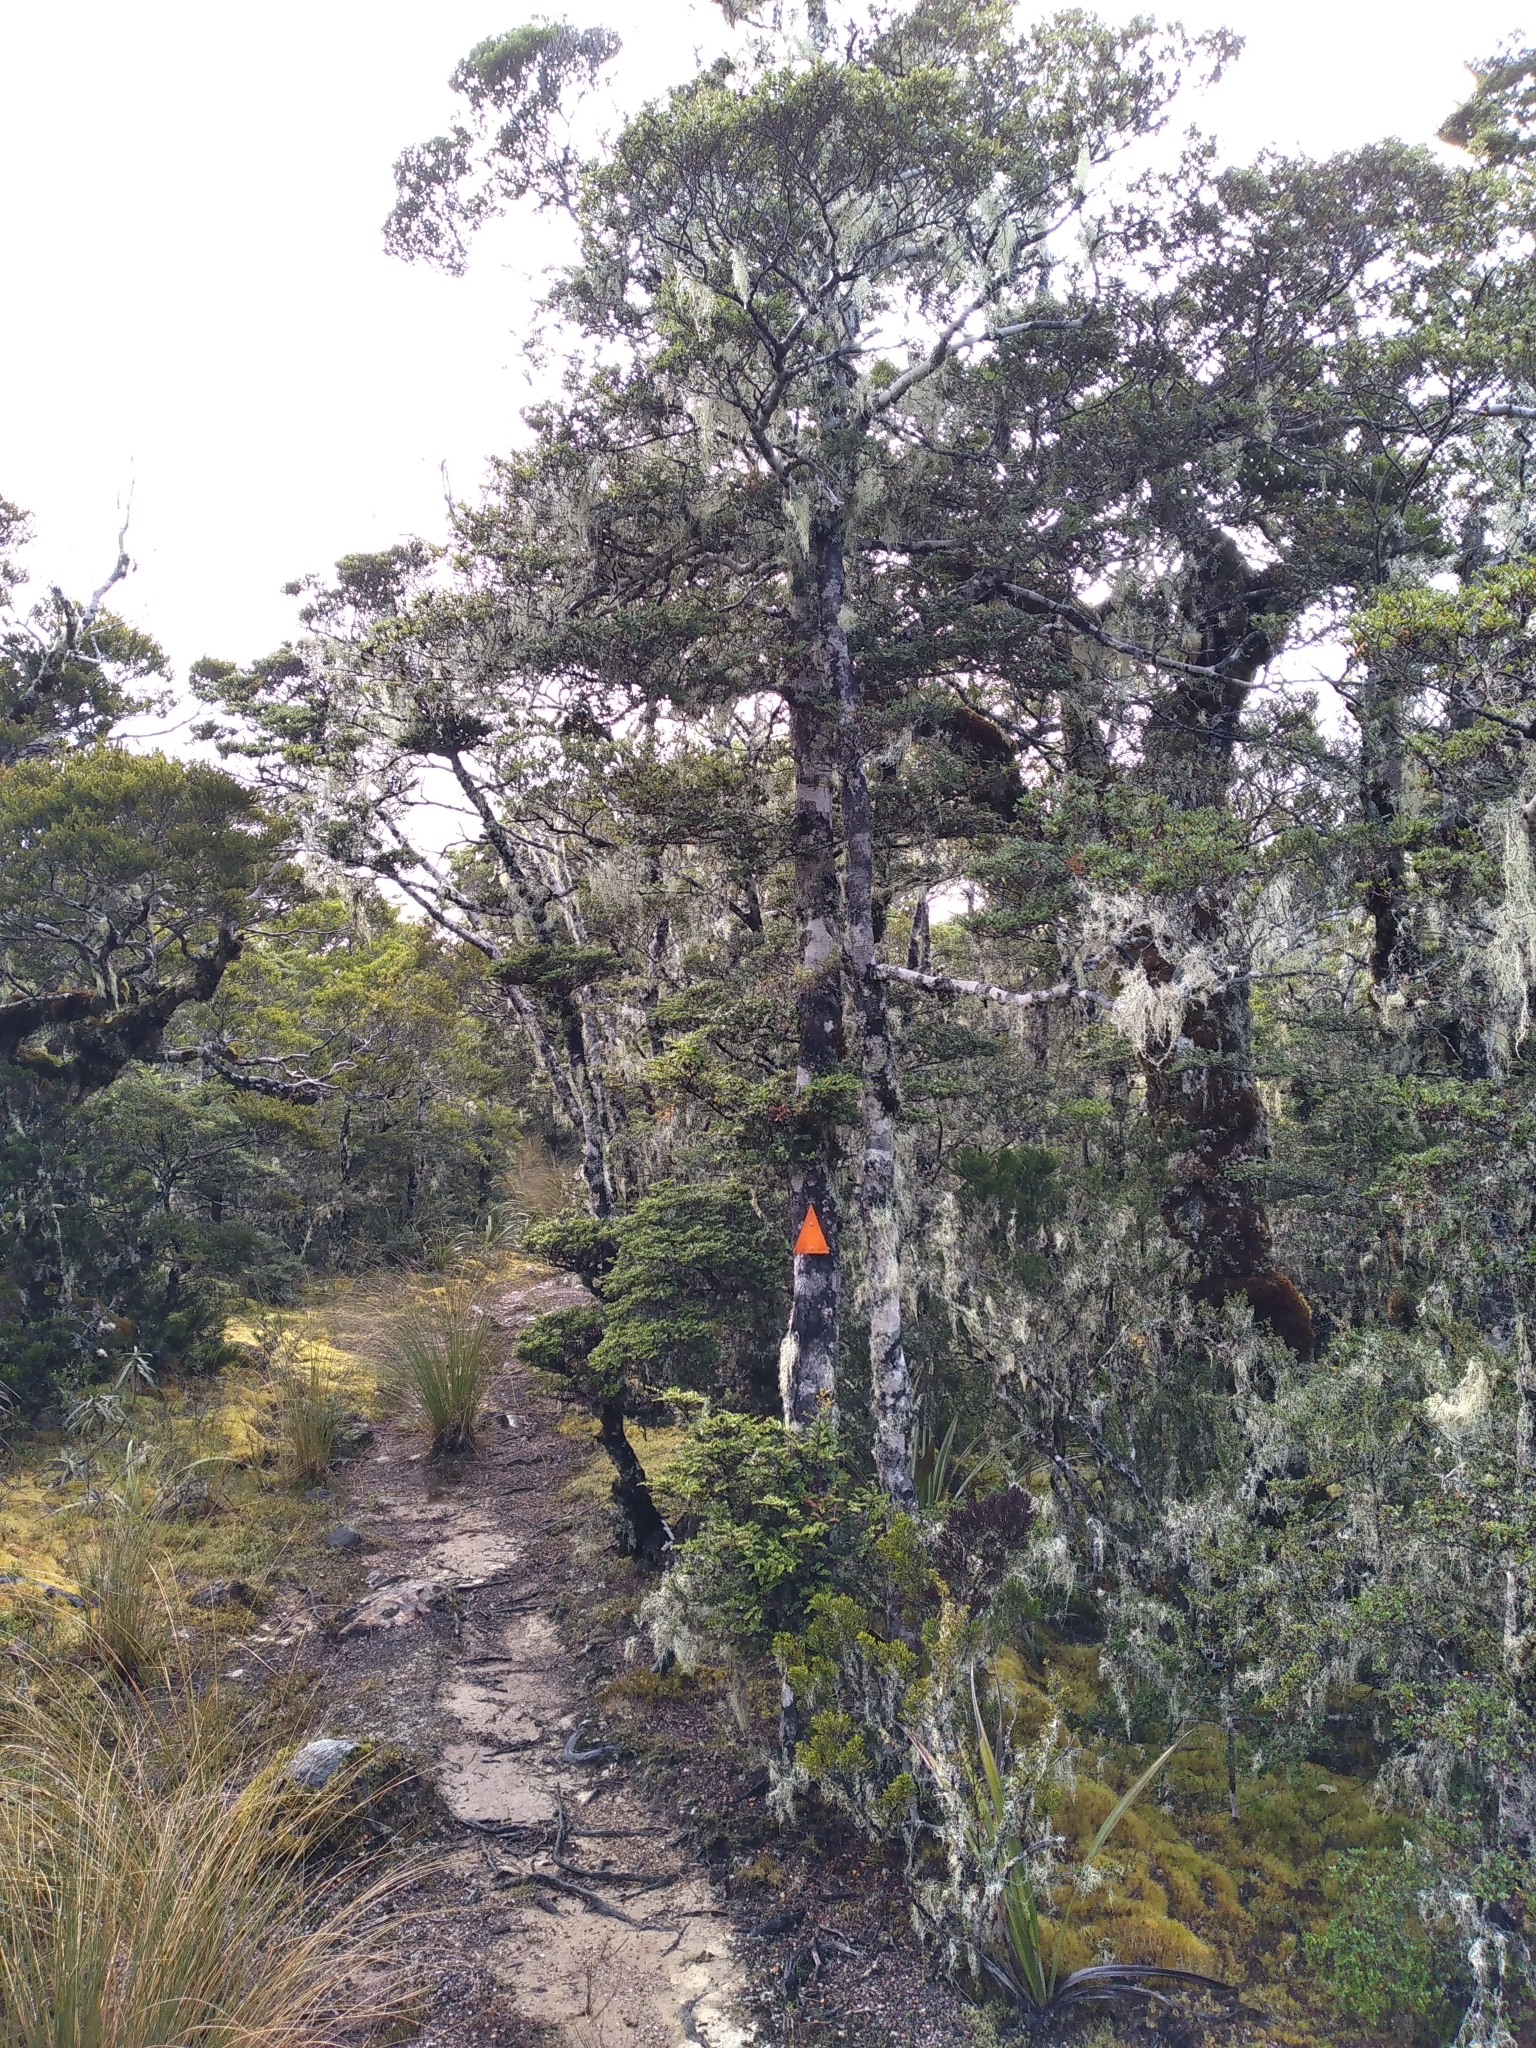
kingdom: Plantae
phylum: Tracheophyta
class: Magnoliopsida
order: Fagales
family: Nothofagaceae
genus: Nothofagus
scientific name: Nothofagus cliffortioides
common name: Mountain beech
